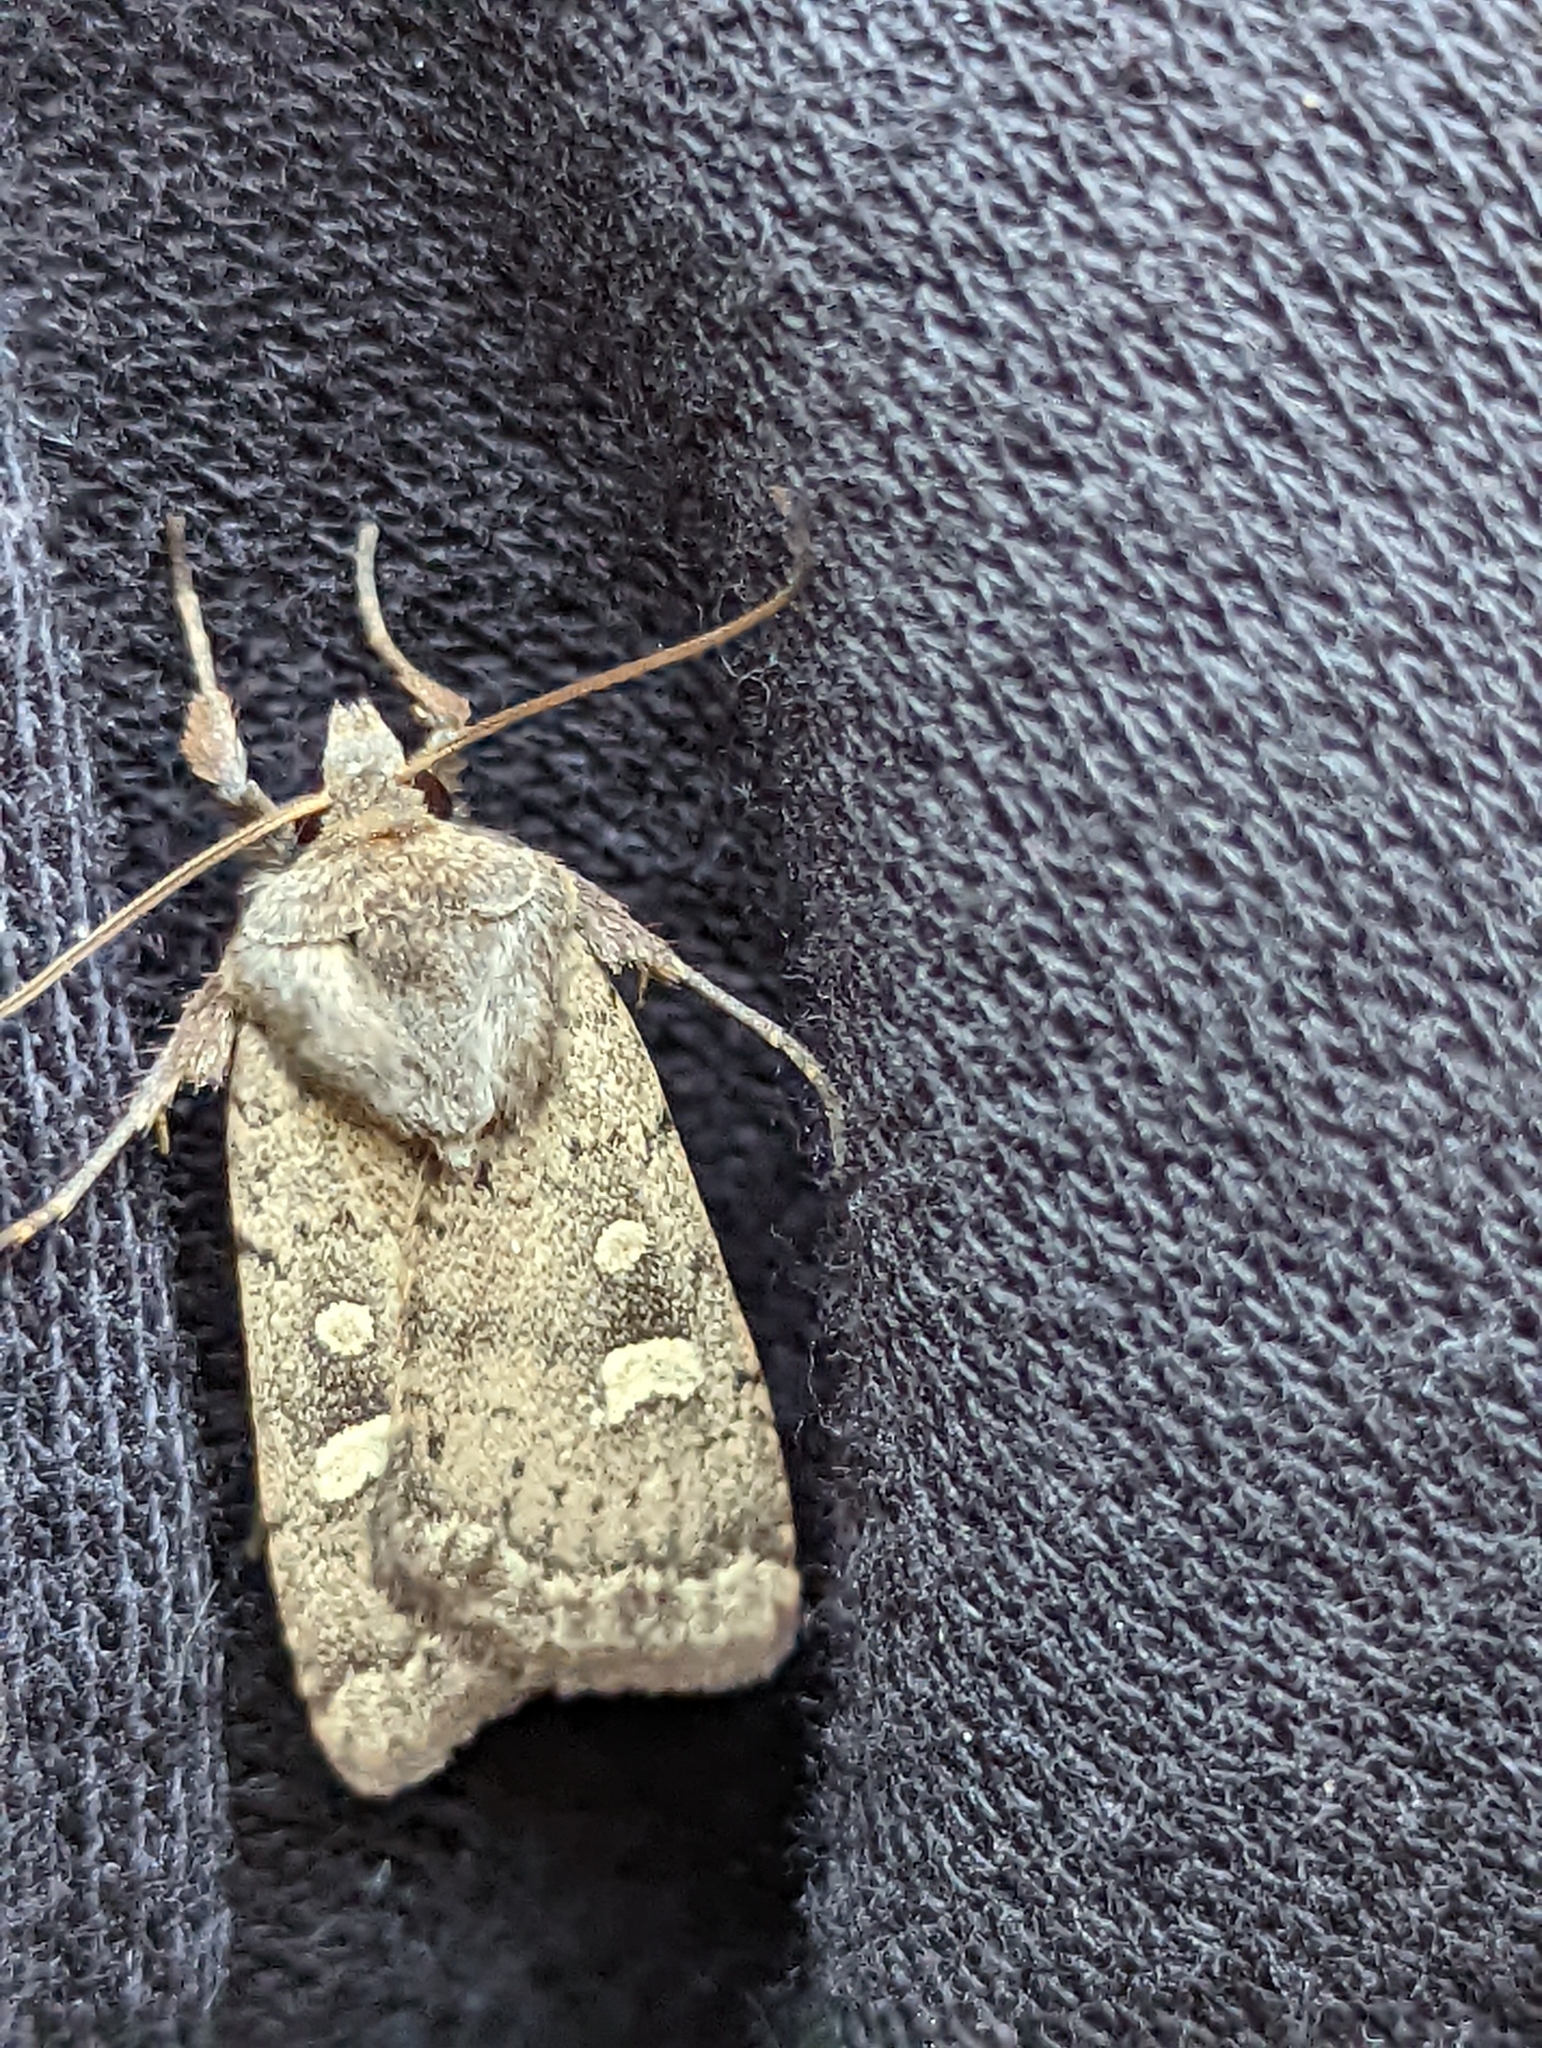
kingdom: Animalia
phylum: Arthropoda
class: Insecta
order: Lepidoptera
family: Noctuidae
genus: Xestia
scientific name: Xestia xanthographa
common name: Square-spot rustic
